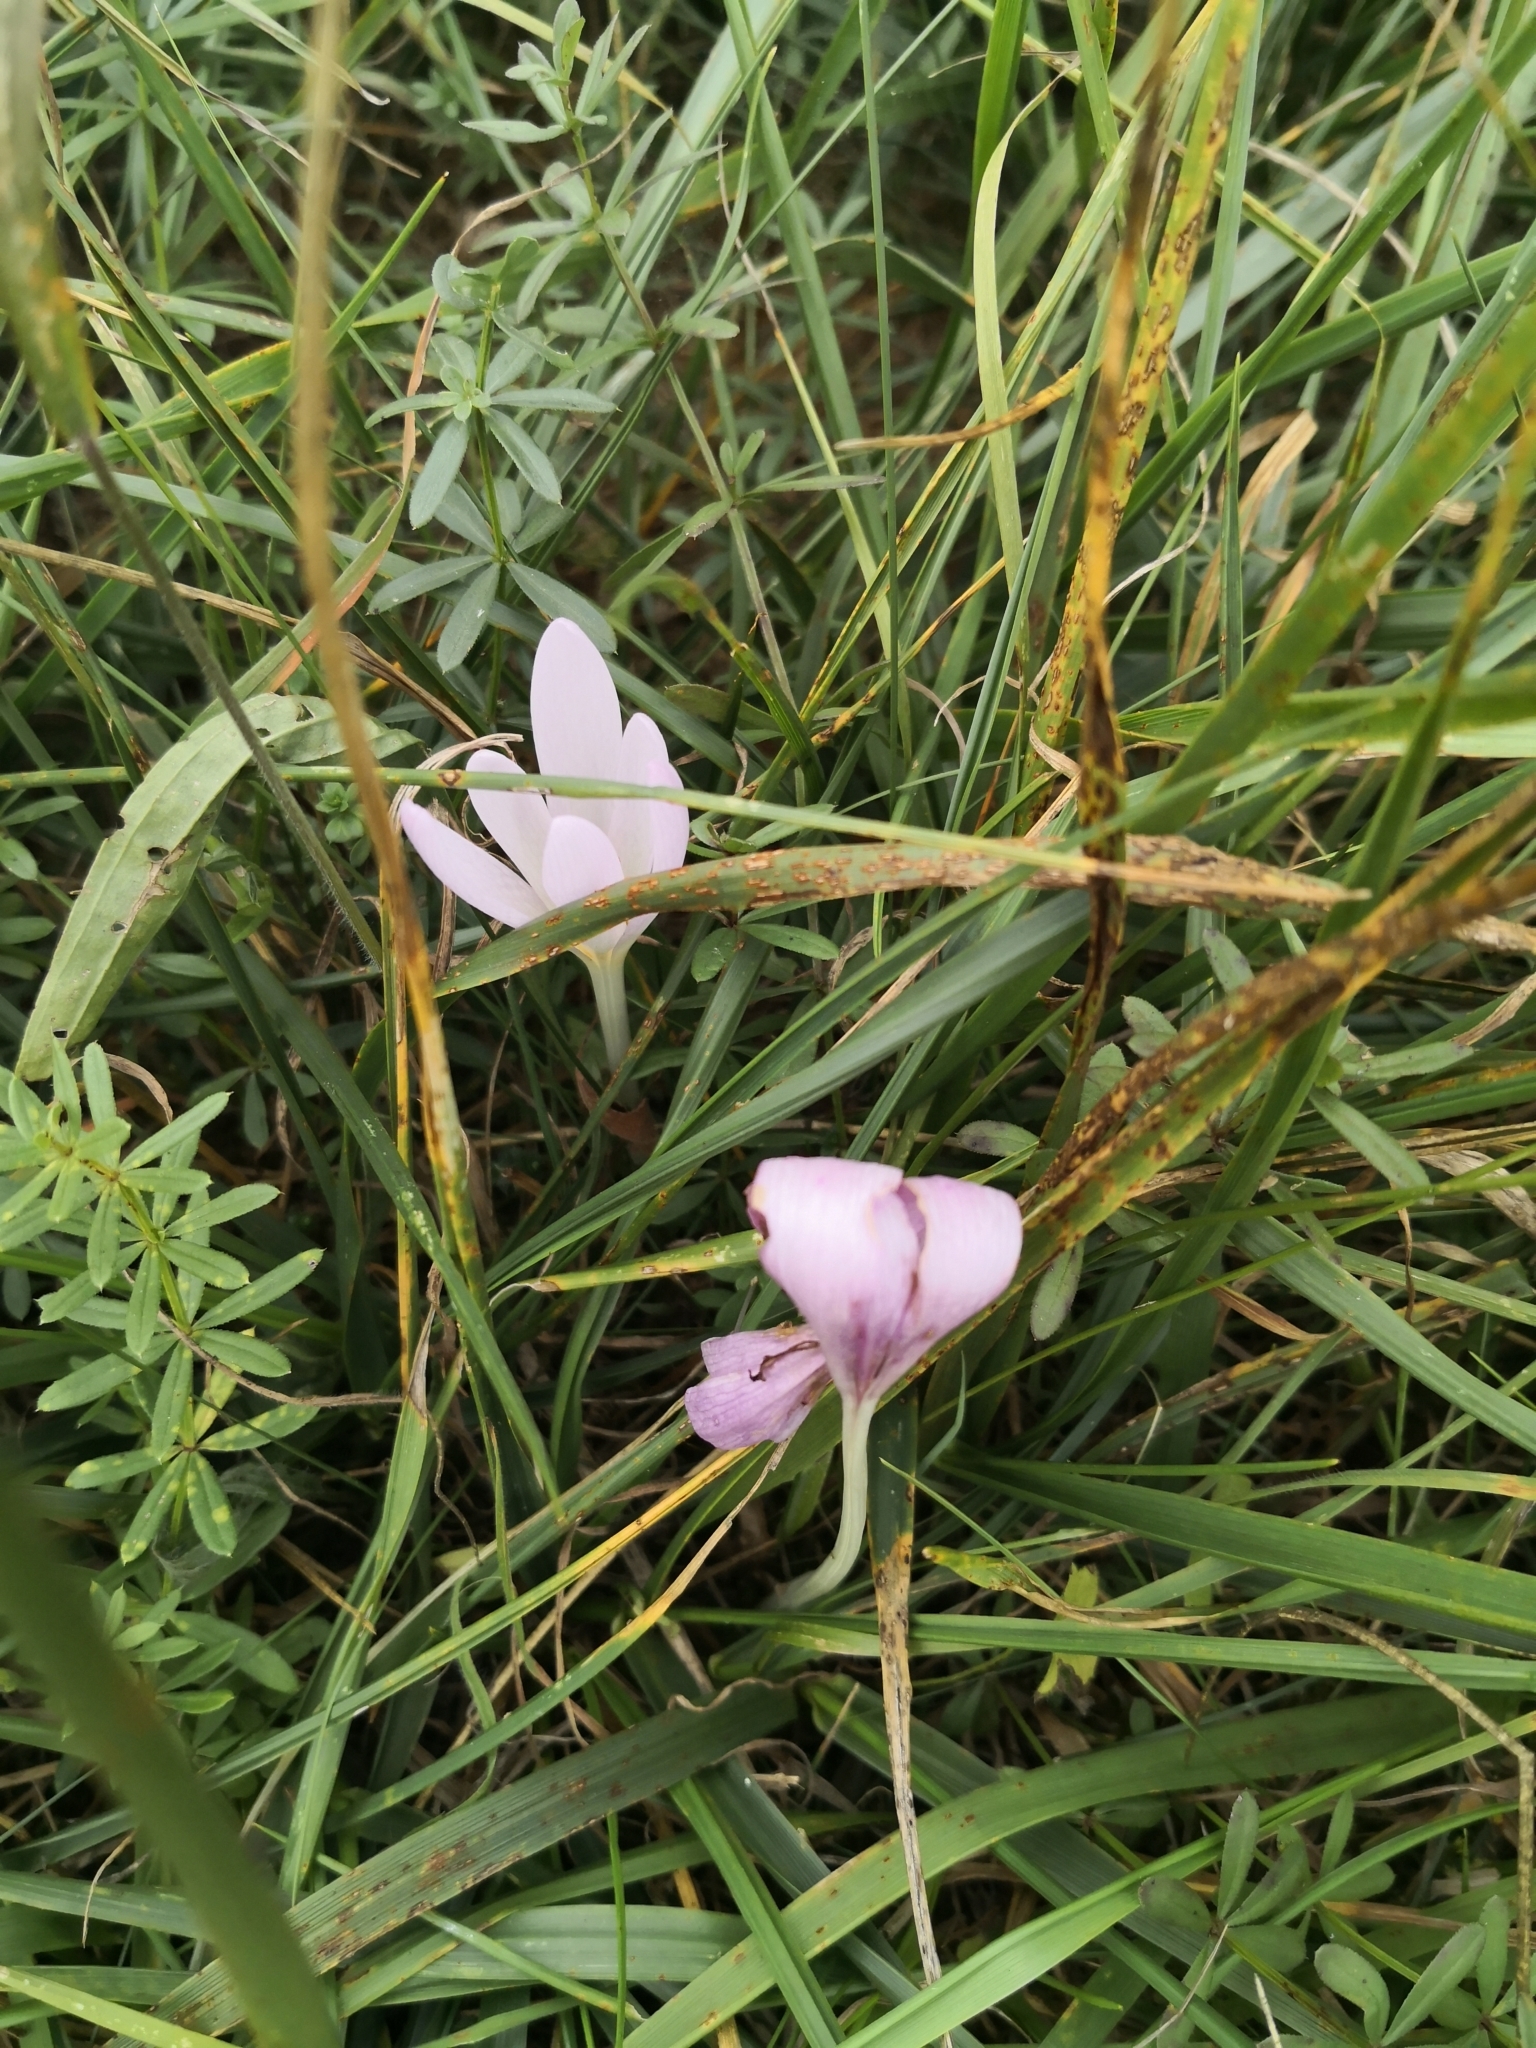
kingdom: Plantae
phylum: Tracheophyta
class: Liliopsida
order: Liliales
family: Colchicaceae
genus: Colchicum
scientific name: Colchicum autumnale
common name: Autumn crocus
